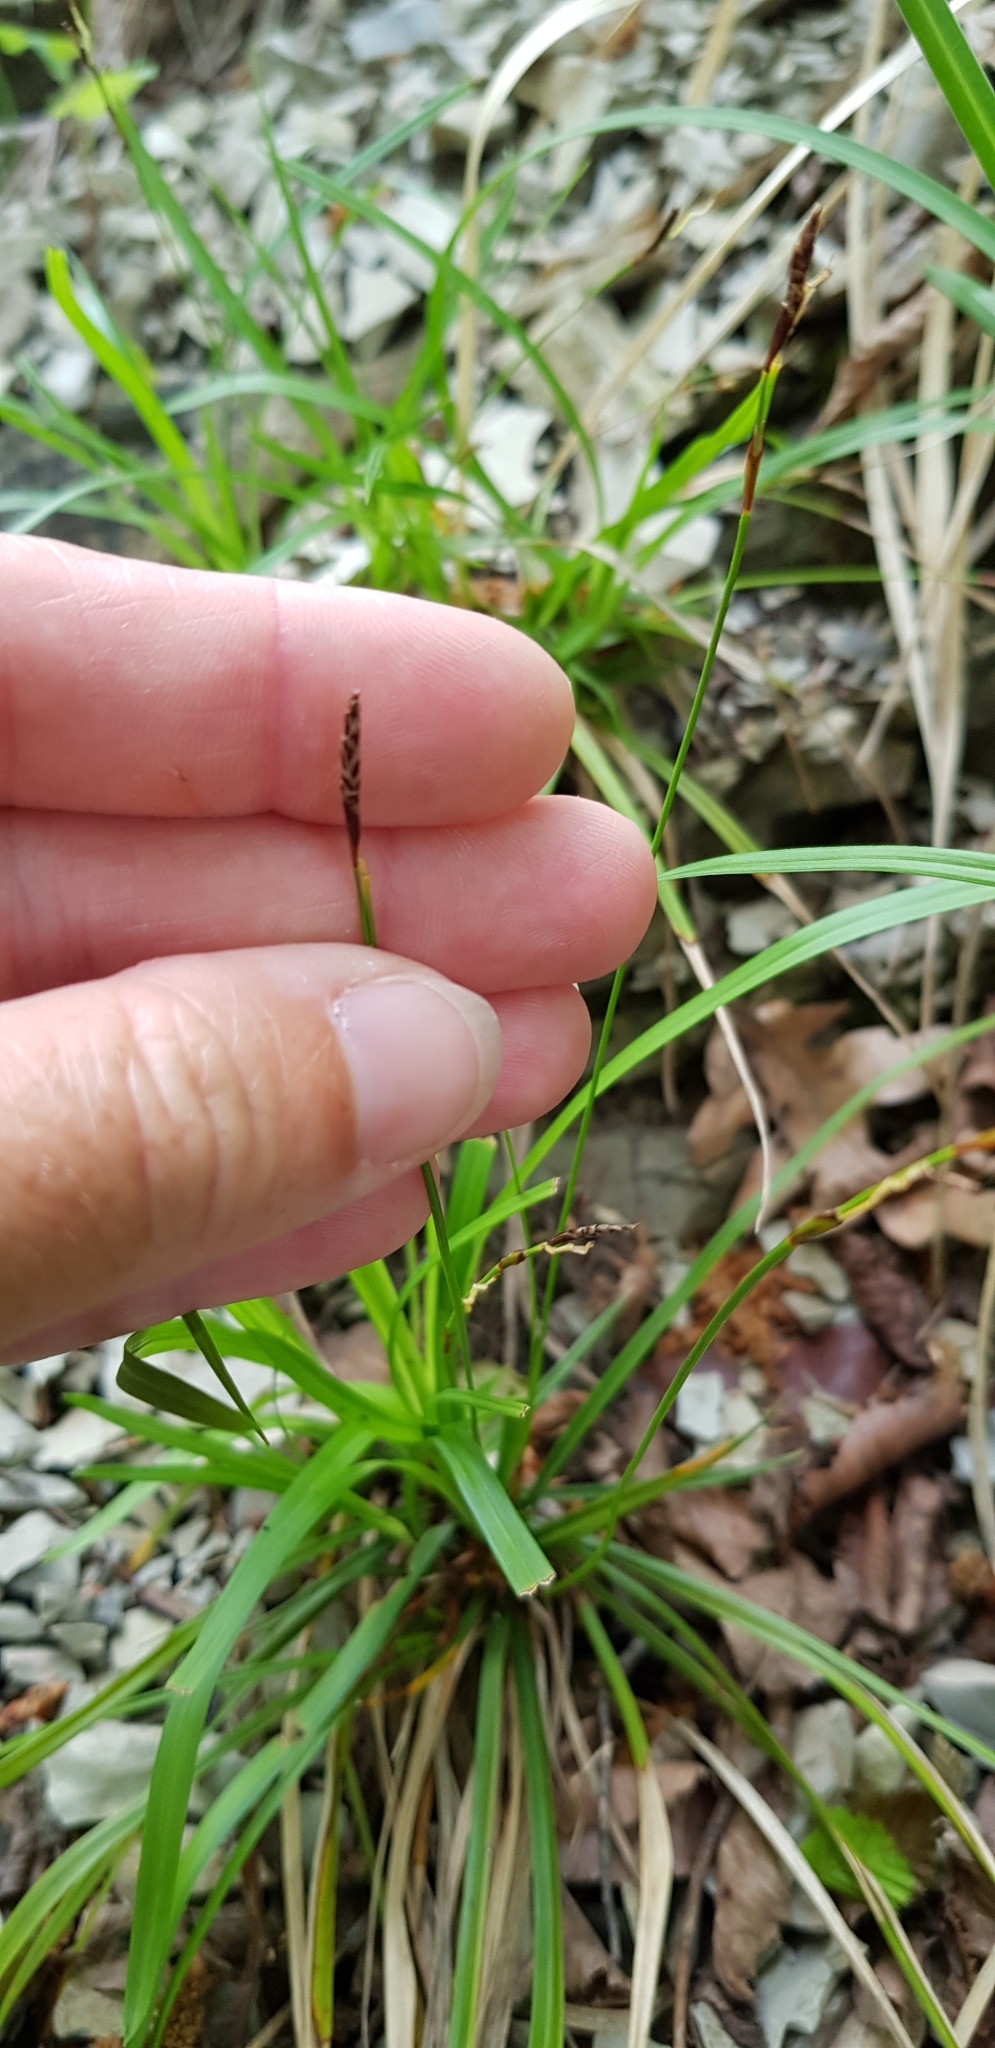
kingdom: Plantae
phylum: Tracheophyta
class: Liliopsida
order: Poales
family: Cyperaceae
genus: Carex
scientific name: Carex digitata
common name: Fingered sedge
